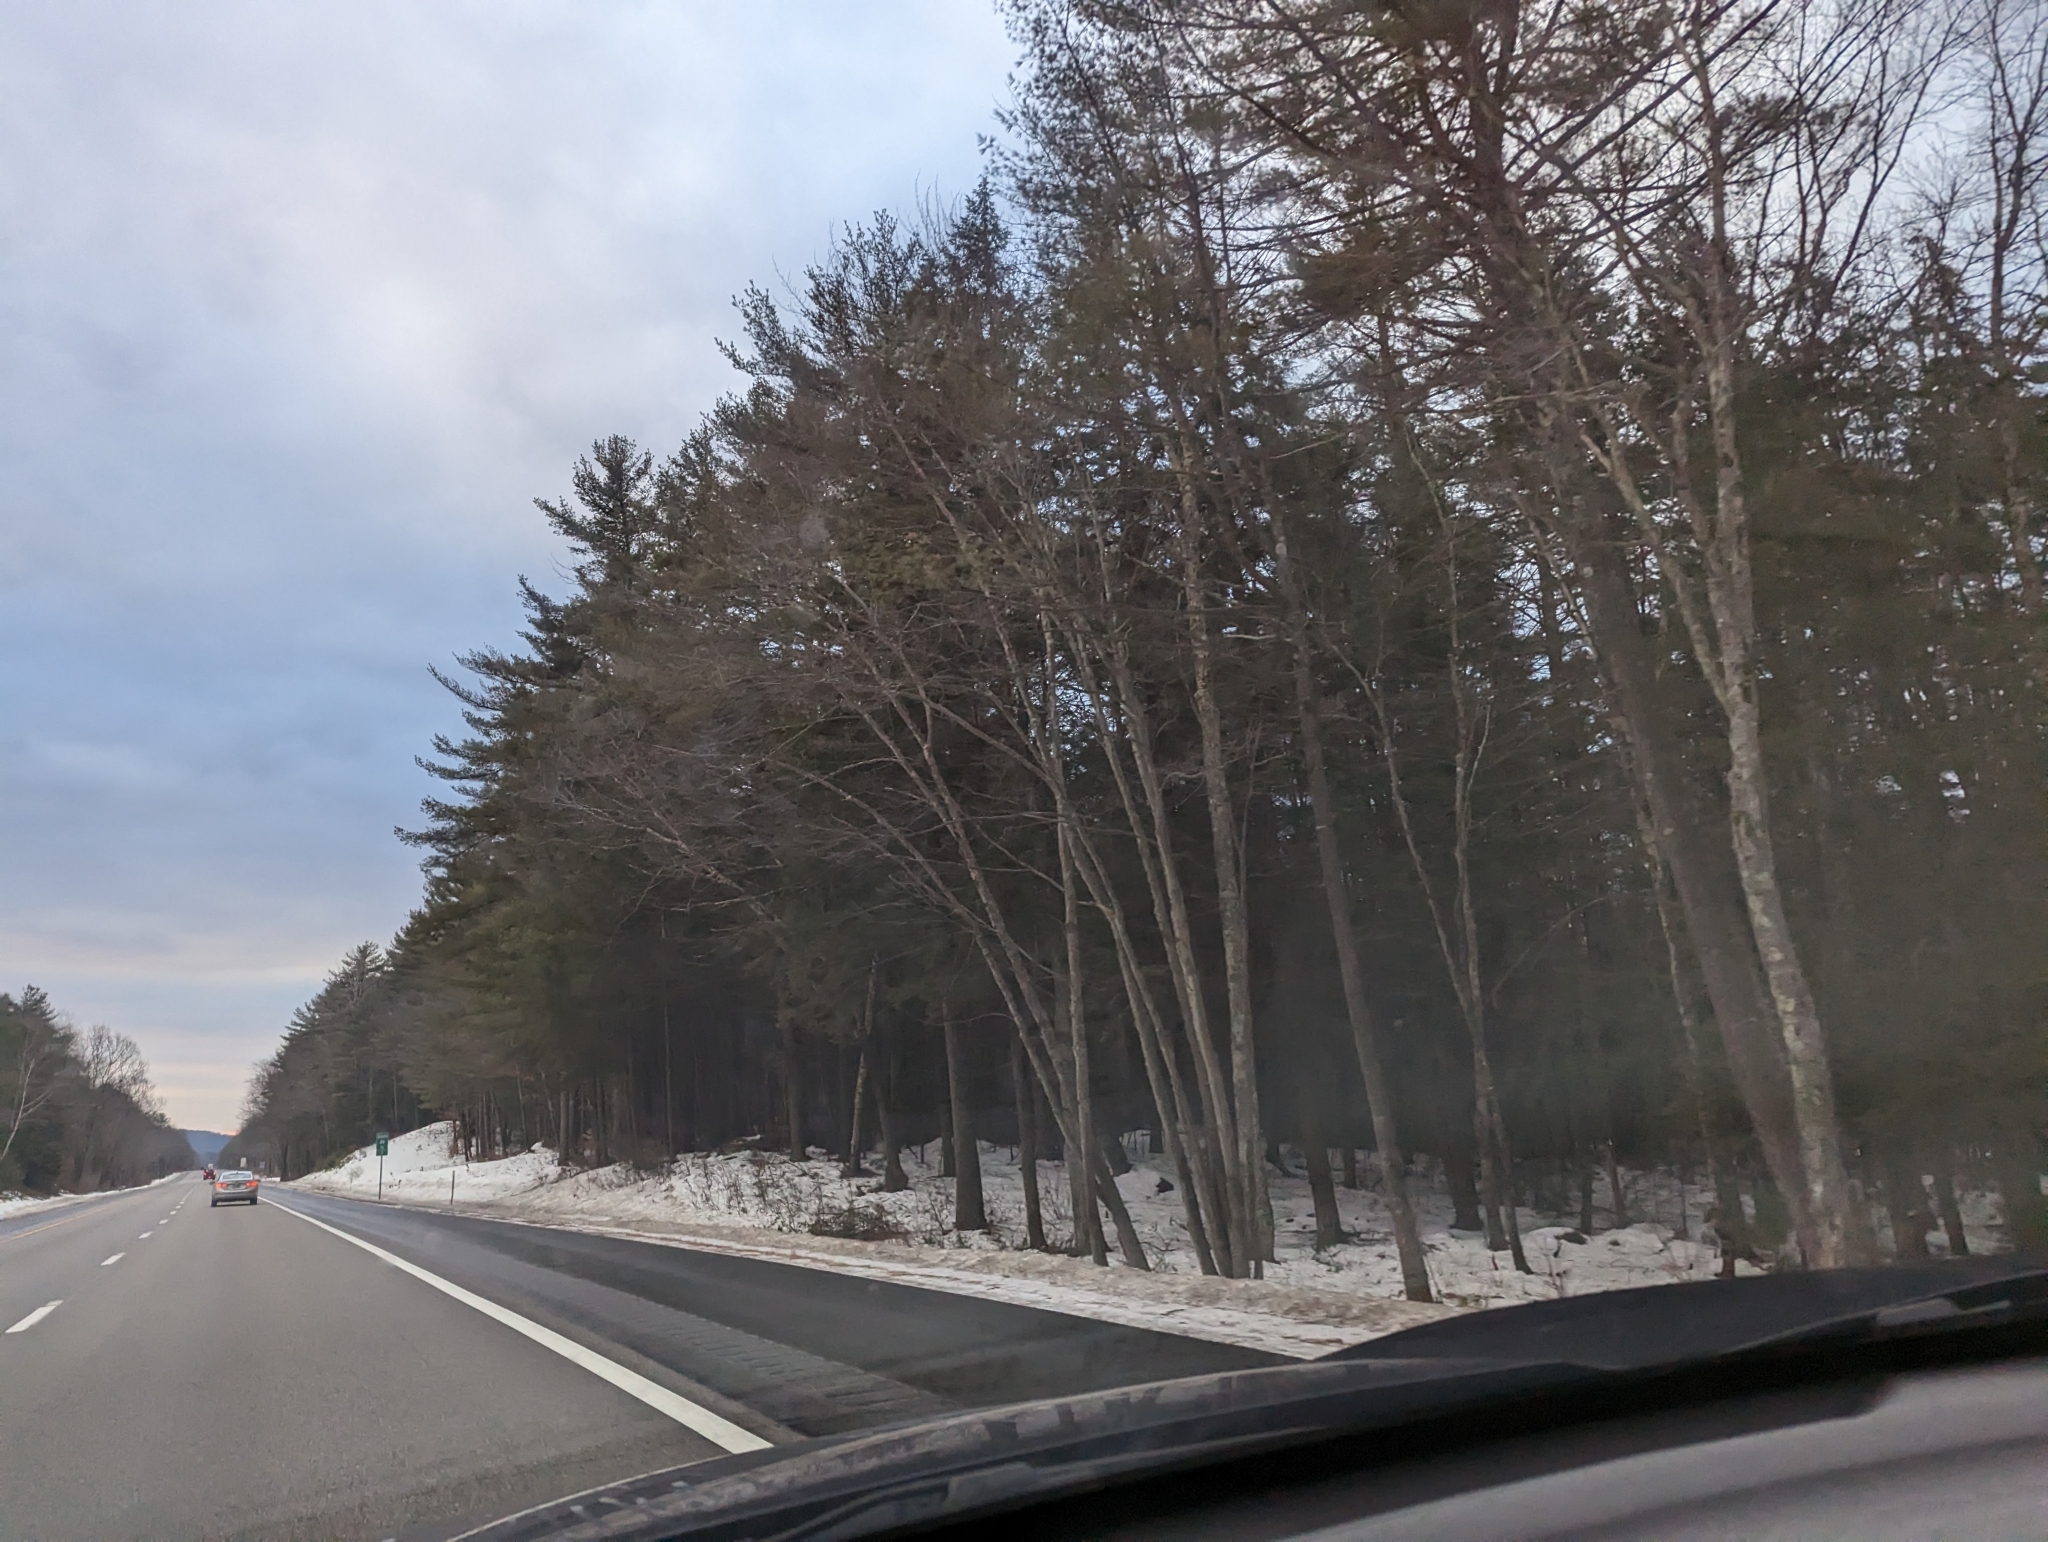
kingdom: Plantae
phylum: Tracheophyta
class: Pinopsida
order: Pinales
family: Pinaceae
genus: Pinus
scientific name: Pinus strobus
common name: Weymouth pine
